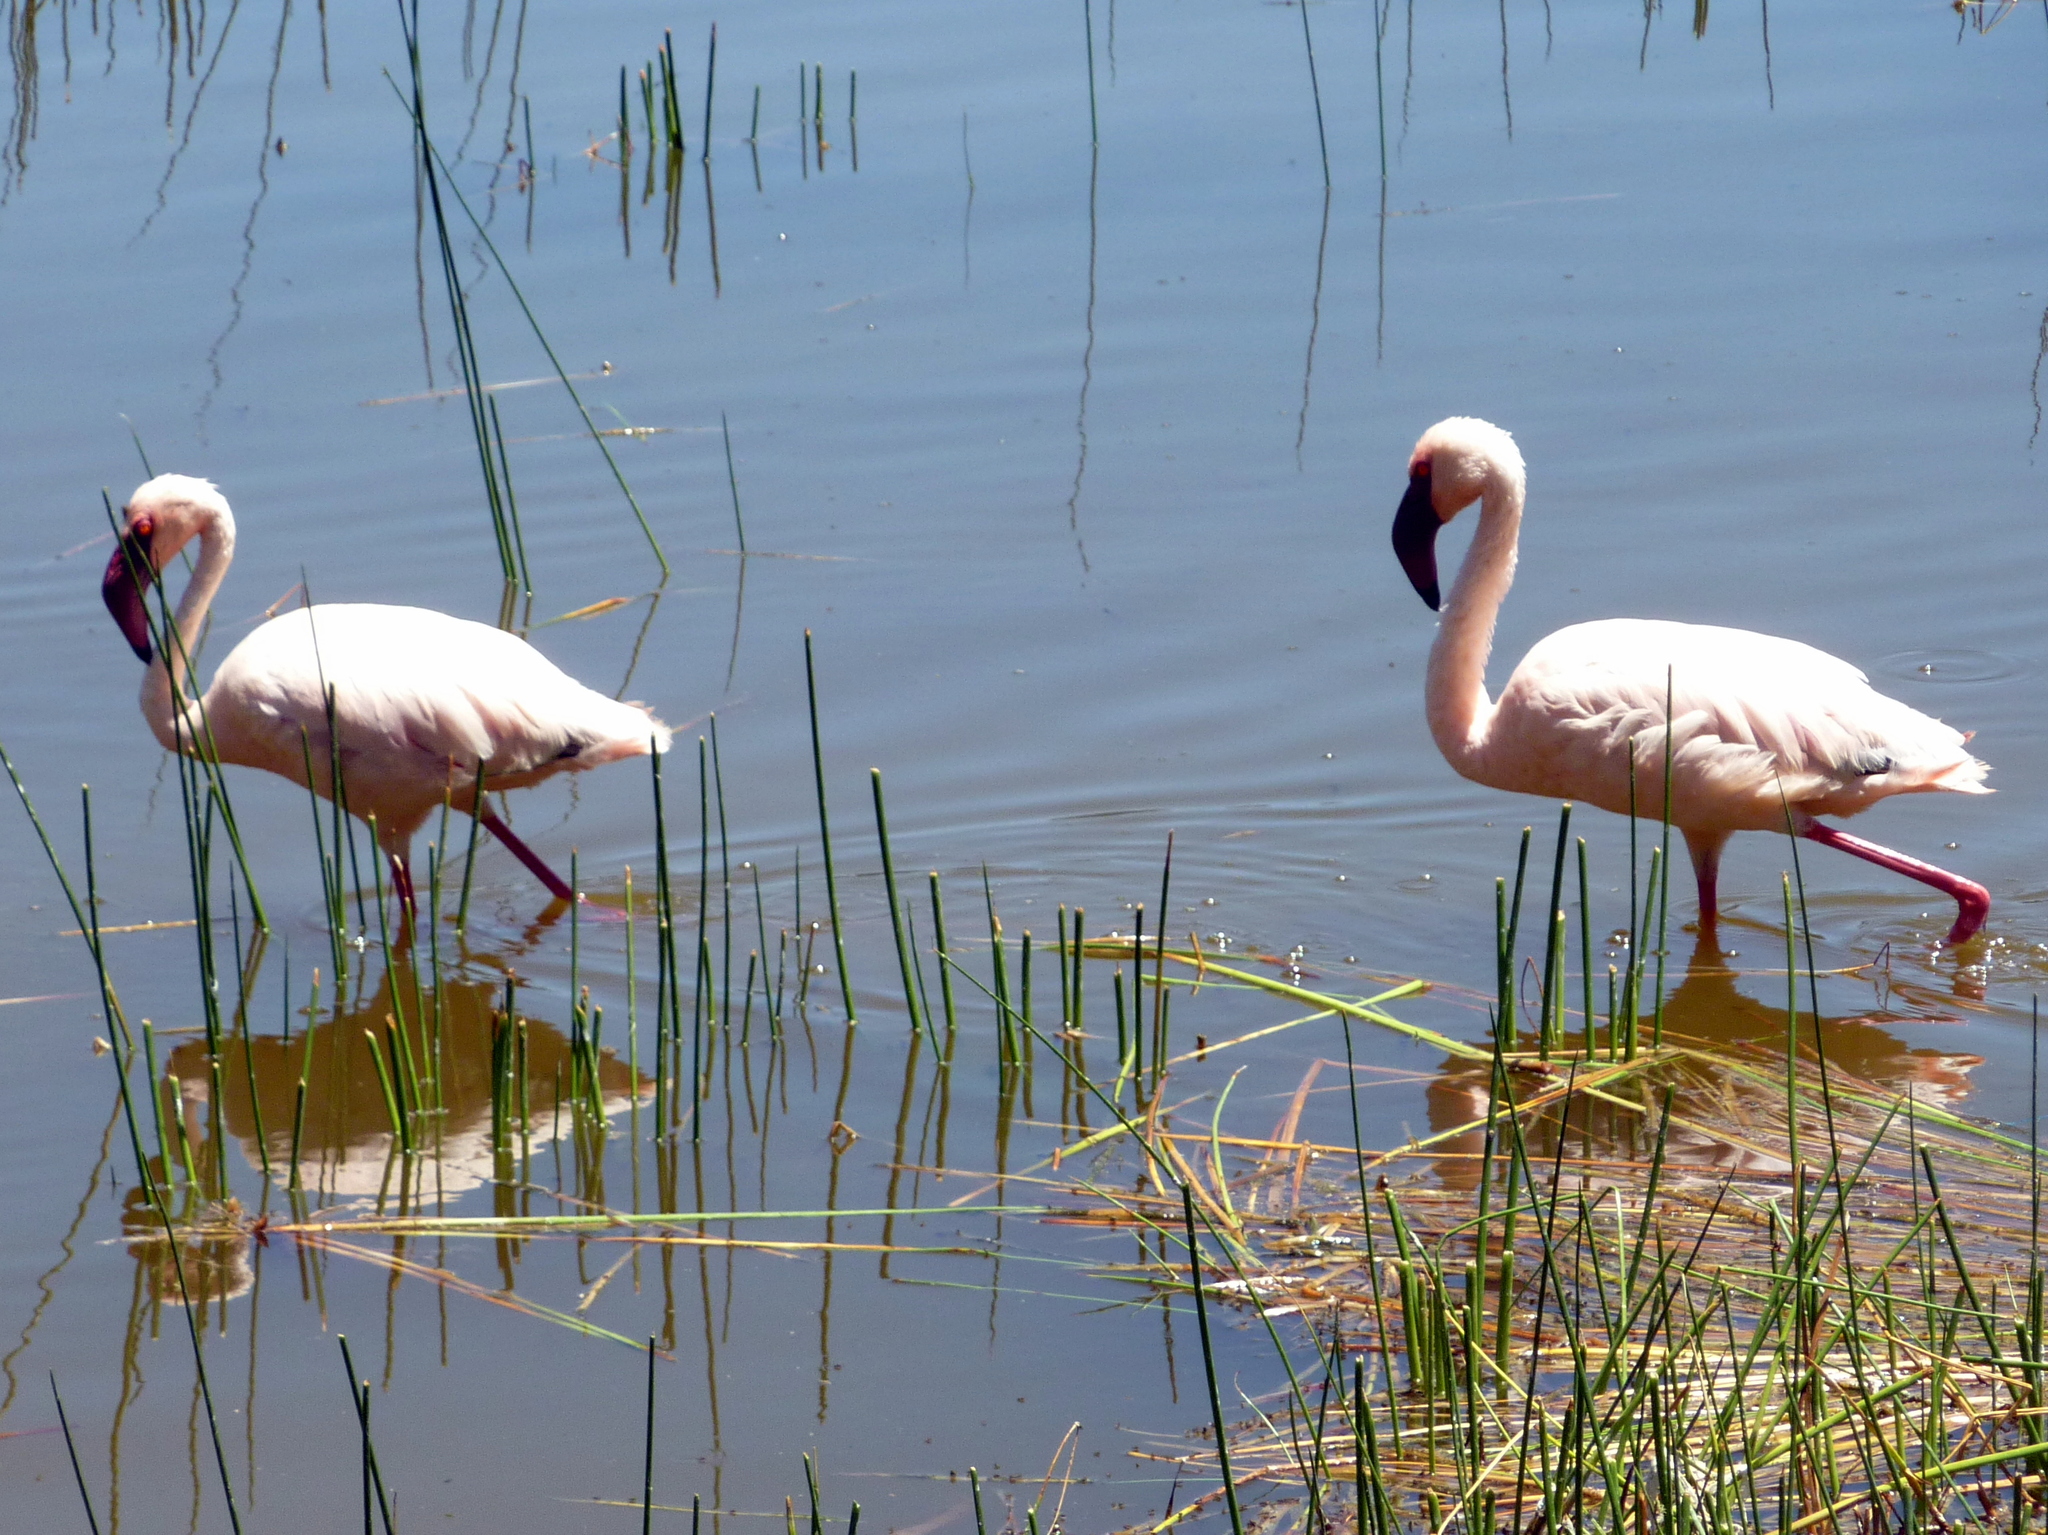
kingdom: Animalia
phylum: Chordata
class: Aves
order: Phoenicopteriformes
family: Phoenicopteridae
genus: Phoeniconaias
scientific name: Phoeniconaias minor
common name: Lesser flamingo
